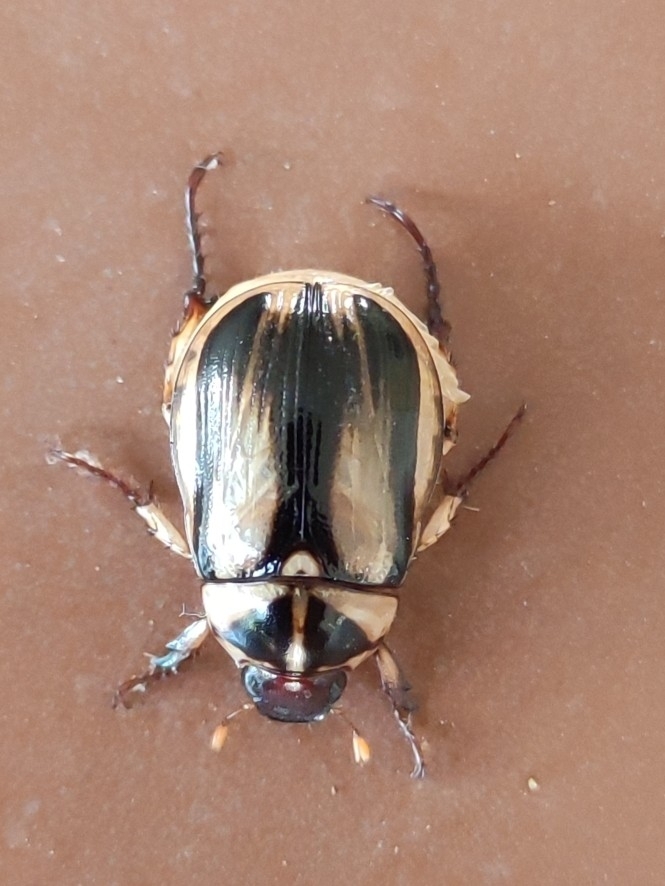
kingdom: Animalia
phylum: Arthropoda
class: Insecta
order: Coleoptera
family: Scarabaeidae
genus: Anomala
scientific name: Anomala ruficapilla
